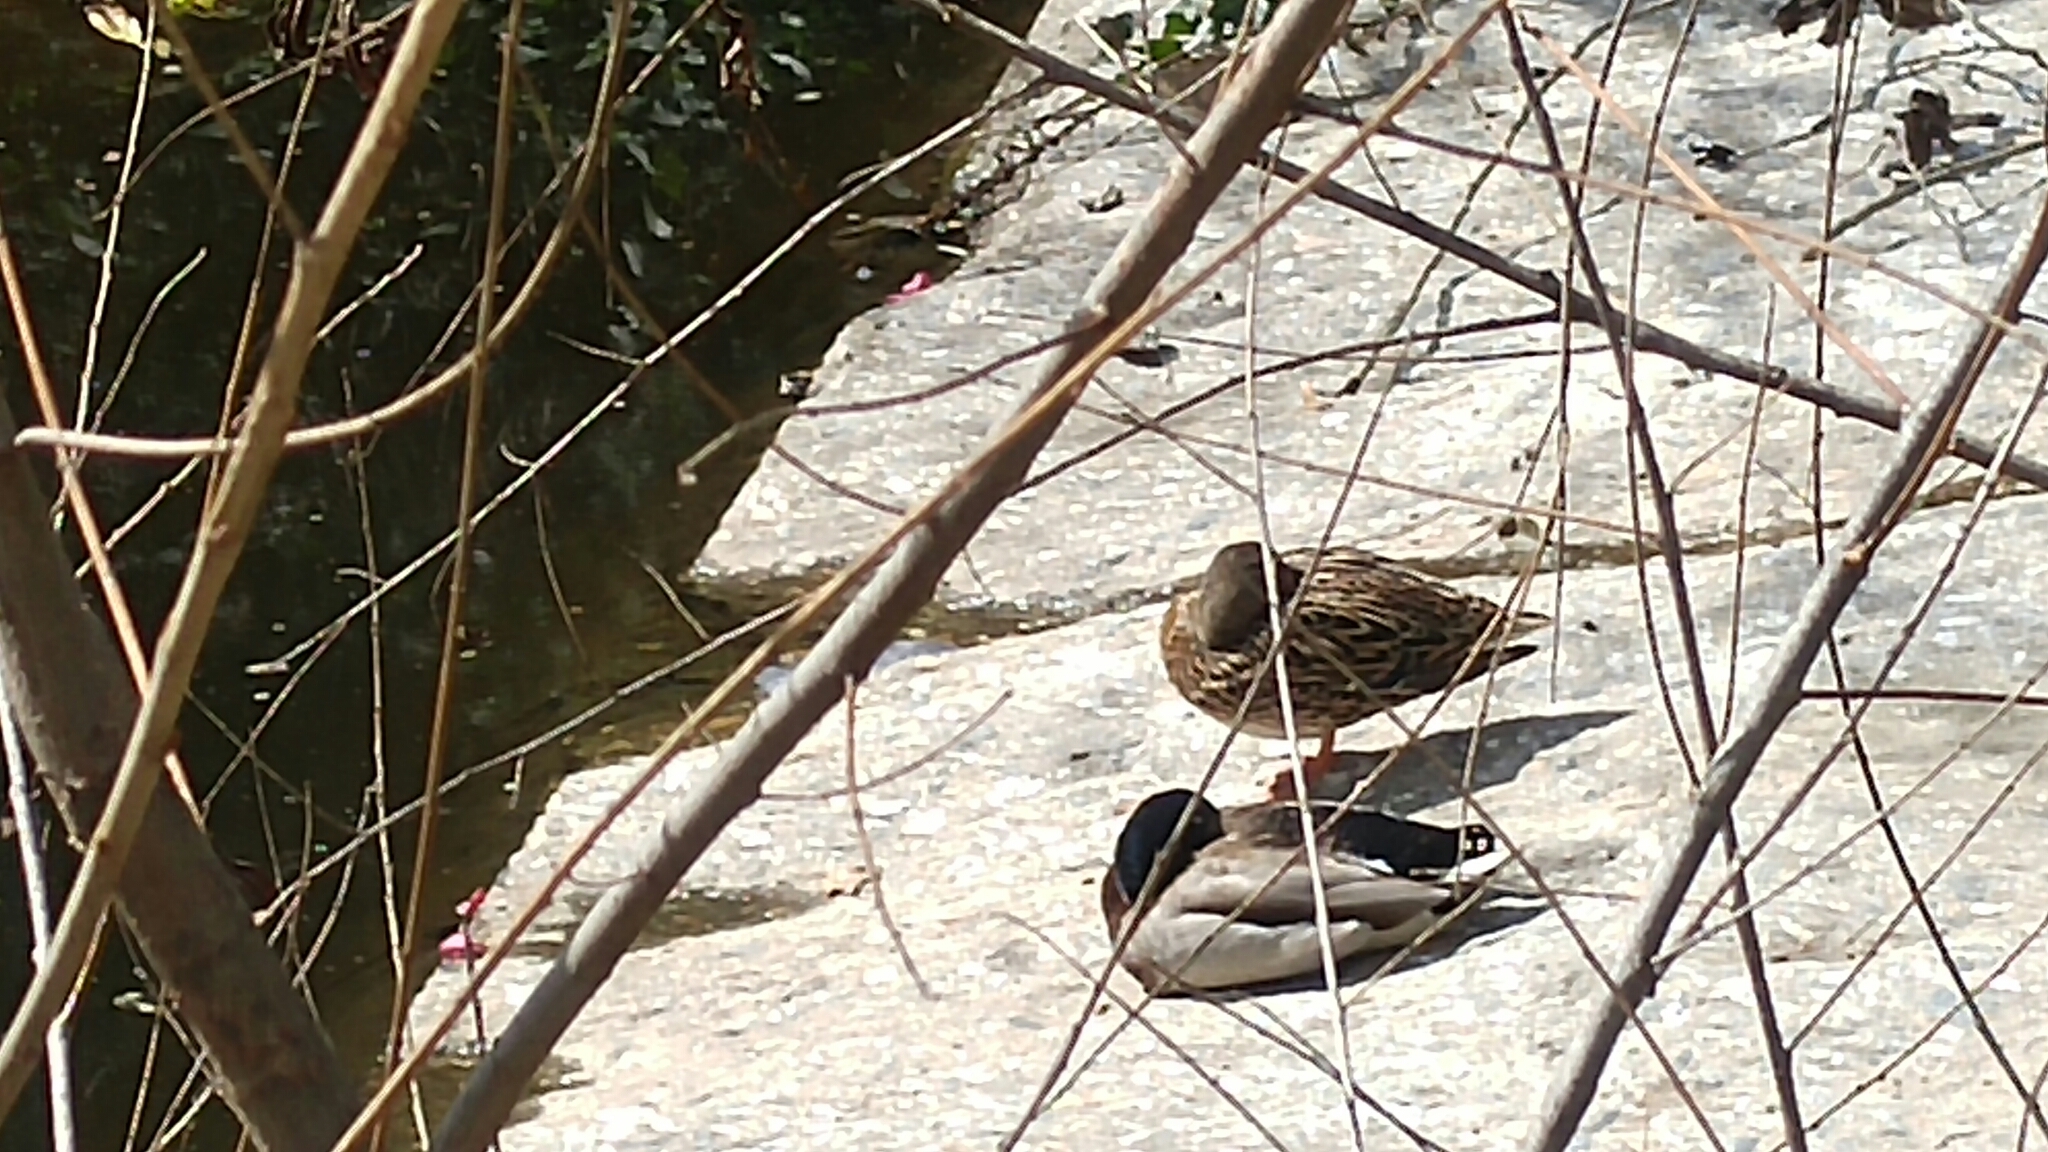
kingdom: Animalia
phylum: Chordata
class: Aves
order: Anseriformes
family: Anatidae
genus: Anas
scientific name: Anas platyrhynchos
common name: Mallard
